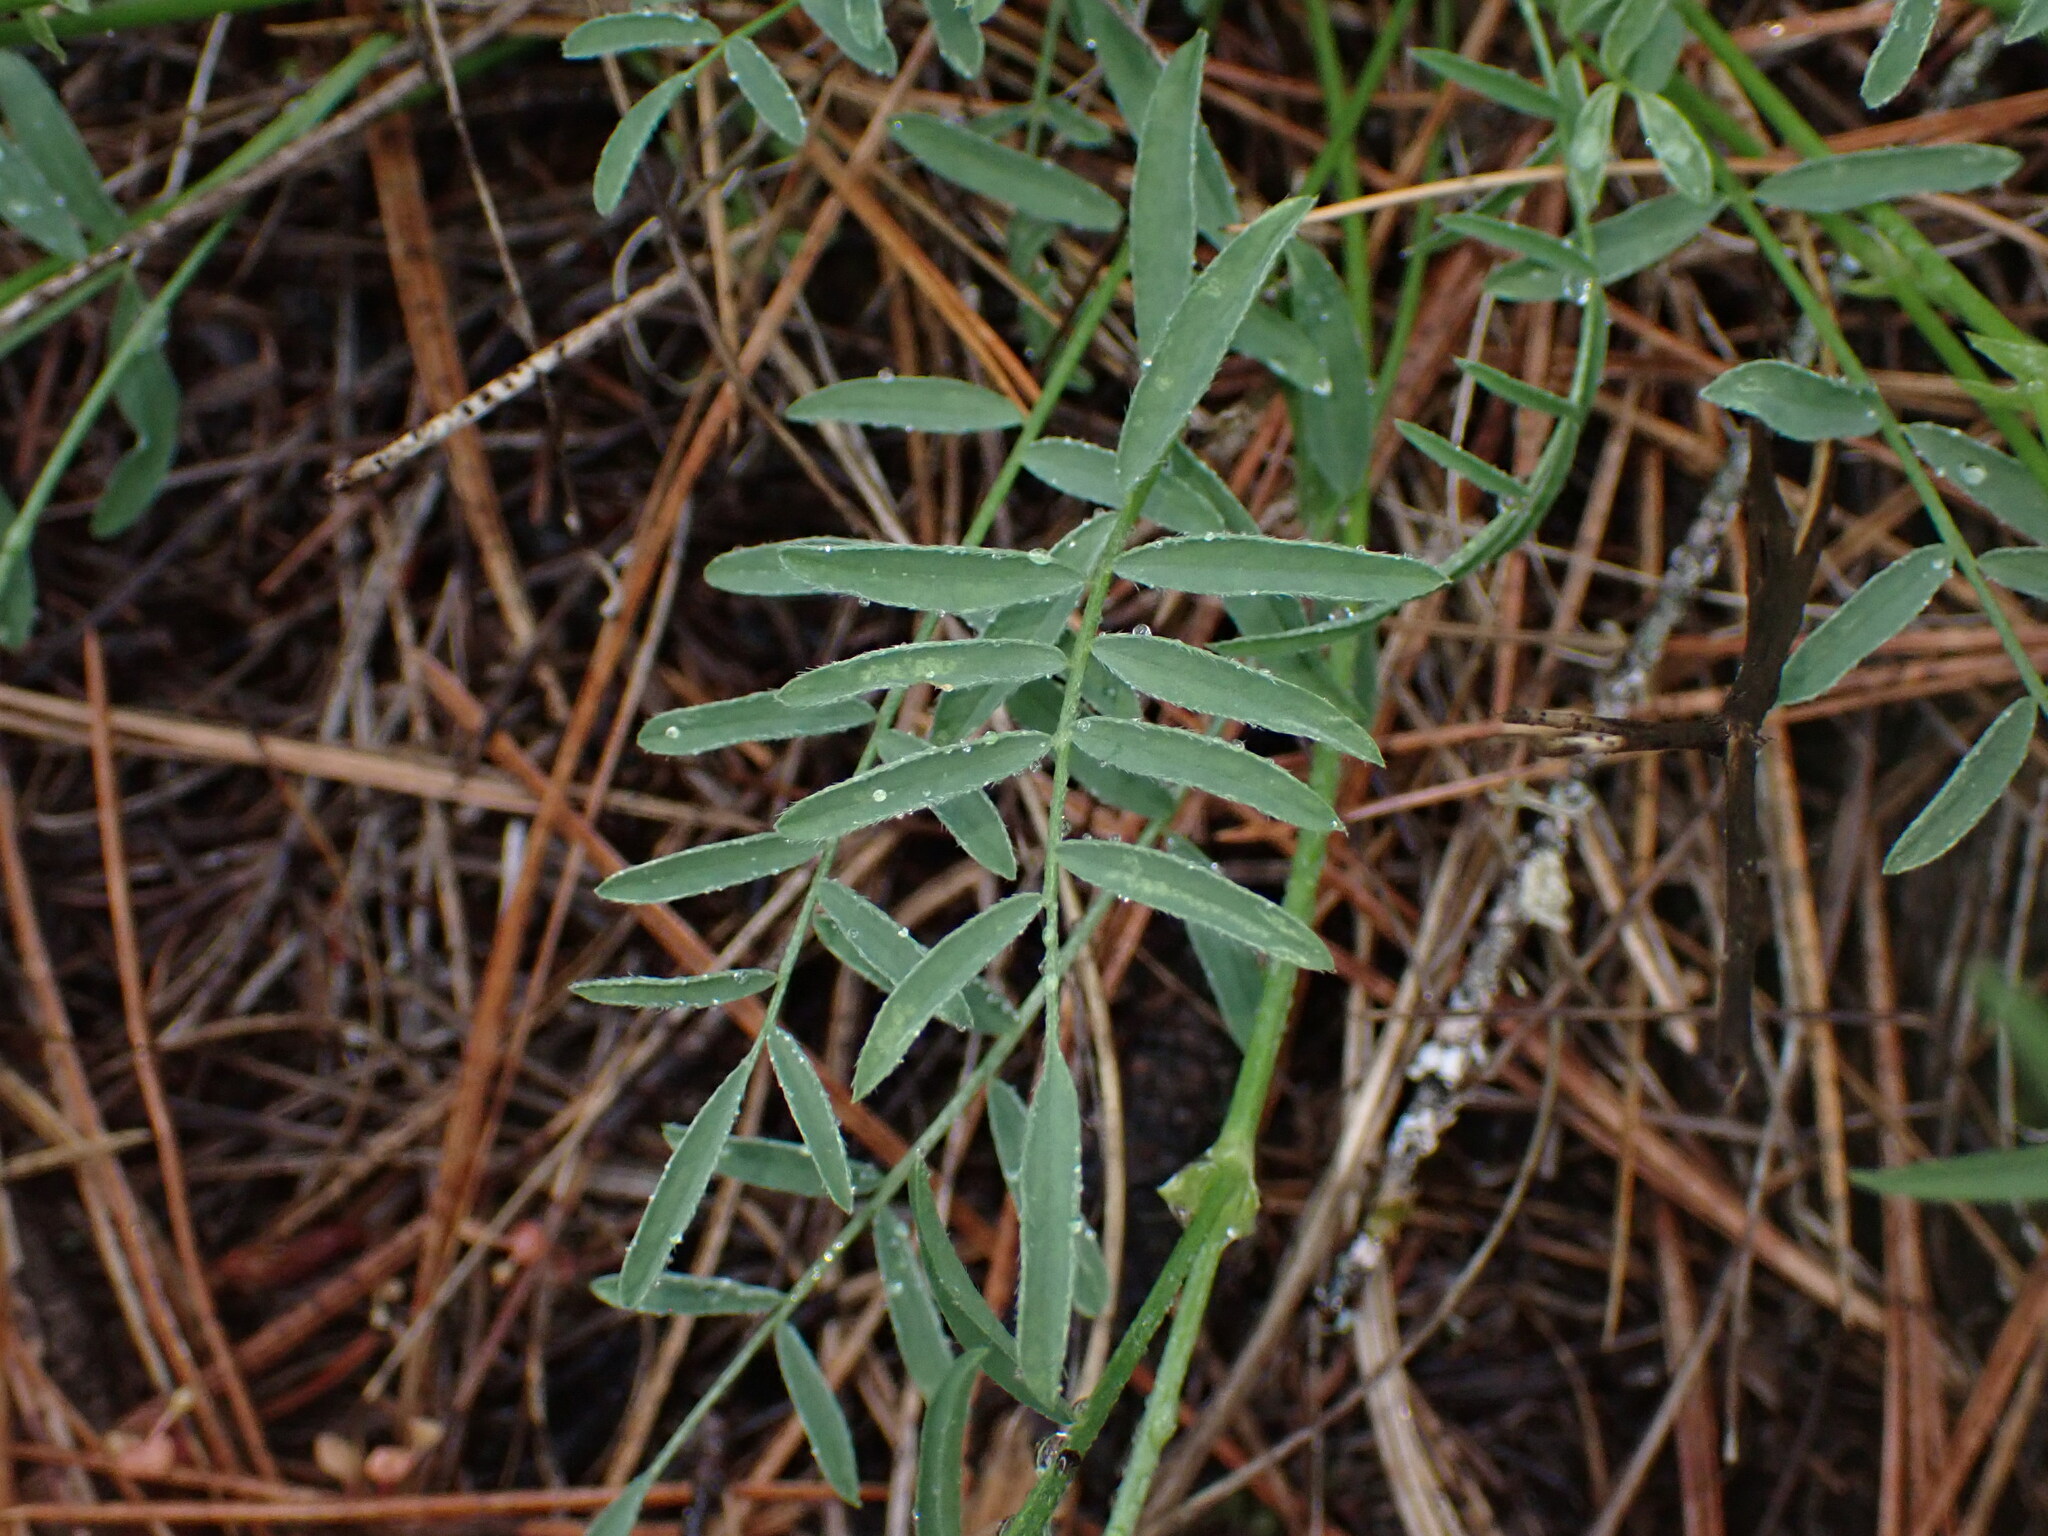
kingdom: Plantae
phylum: Tracheophyta
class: Magnoliopsida
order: Fabales
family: Fabaceae
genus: Astragalus
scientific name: Astragalus miser
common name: Timber milkvetch
